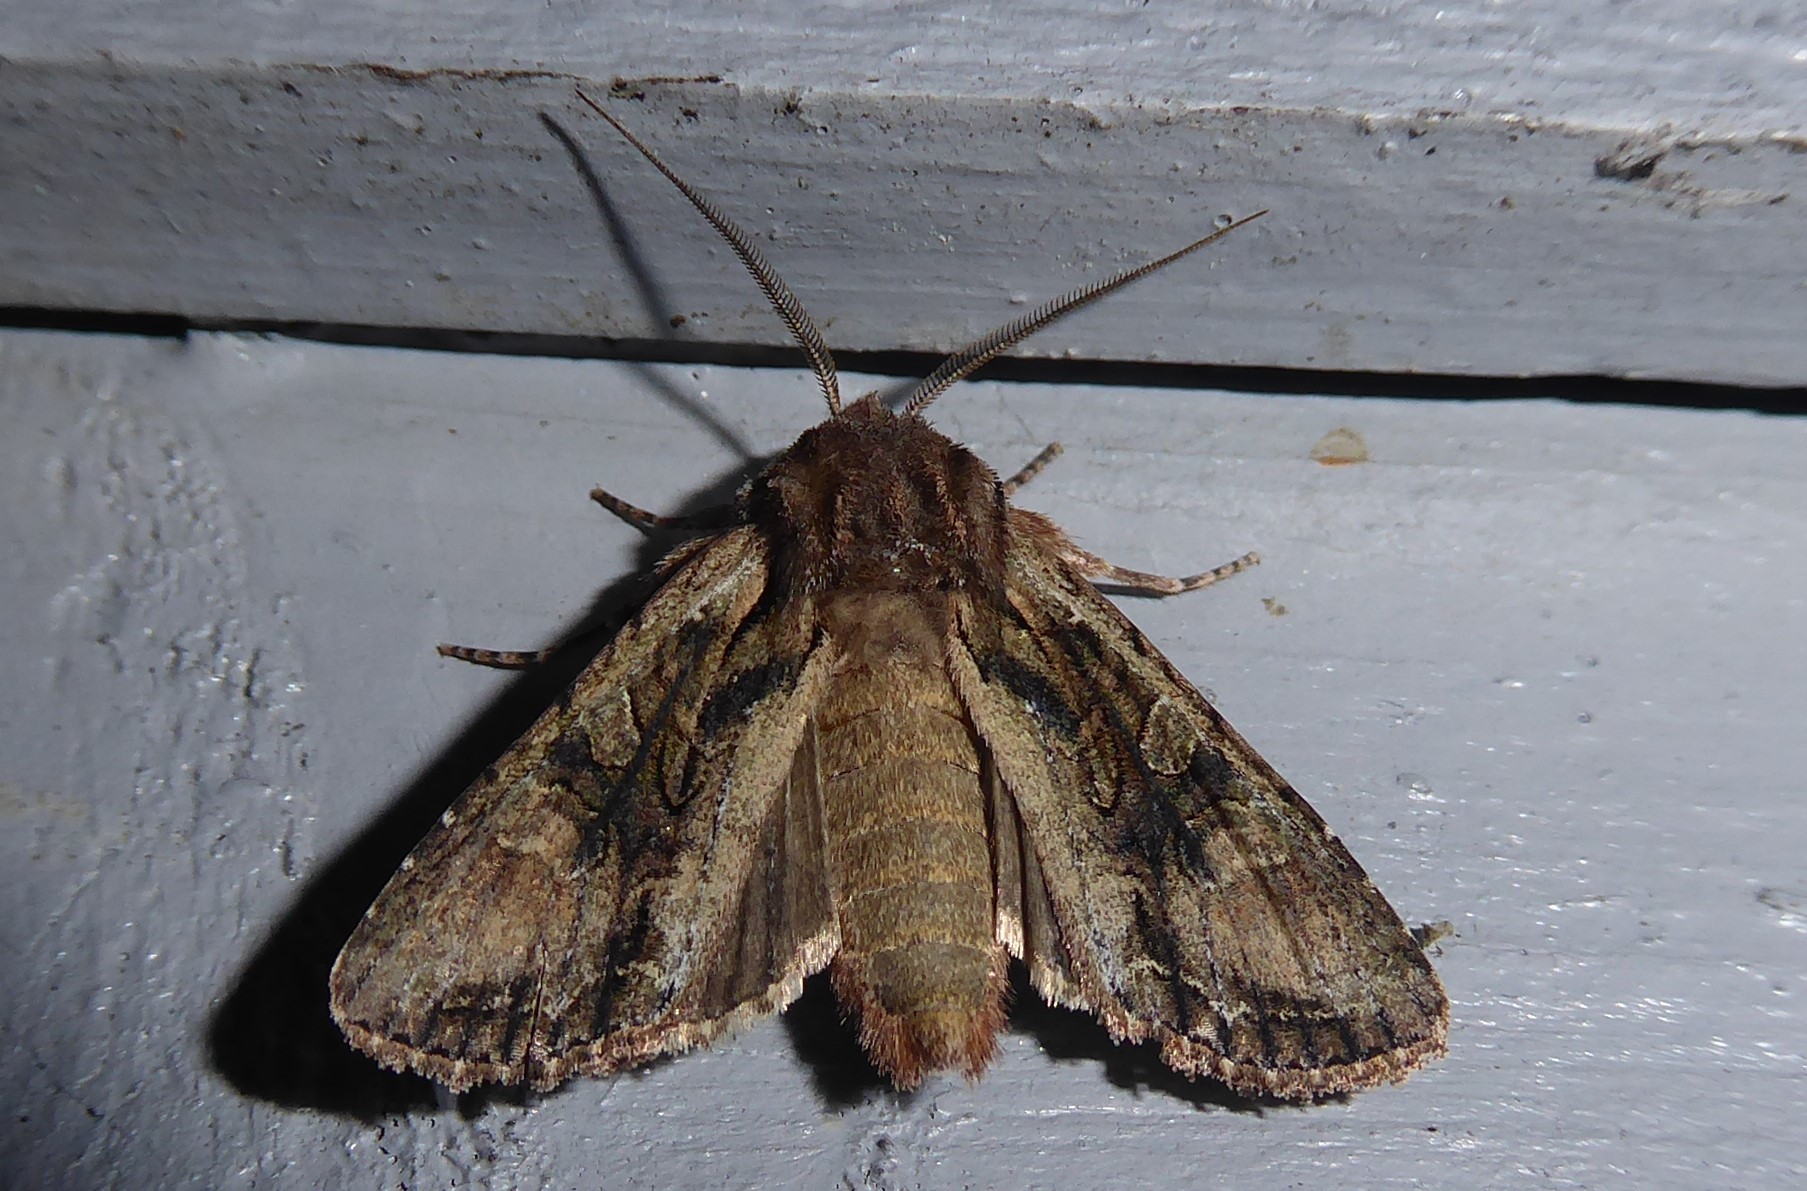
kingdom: Animalia
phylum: Arthropoda
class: Insecta
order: Lepidoptera
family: Noctuidae
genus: Ichneutica
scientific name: Ichneutica mutans
